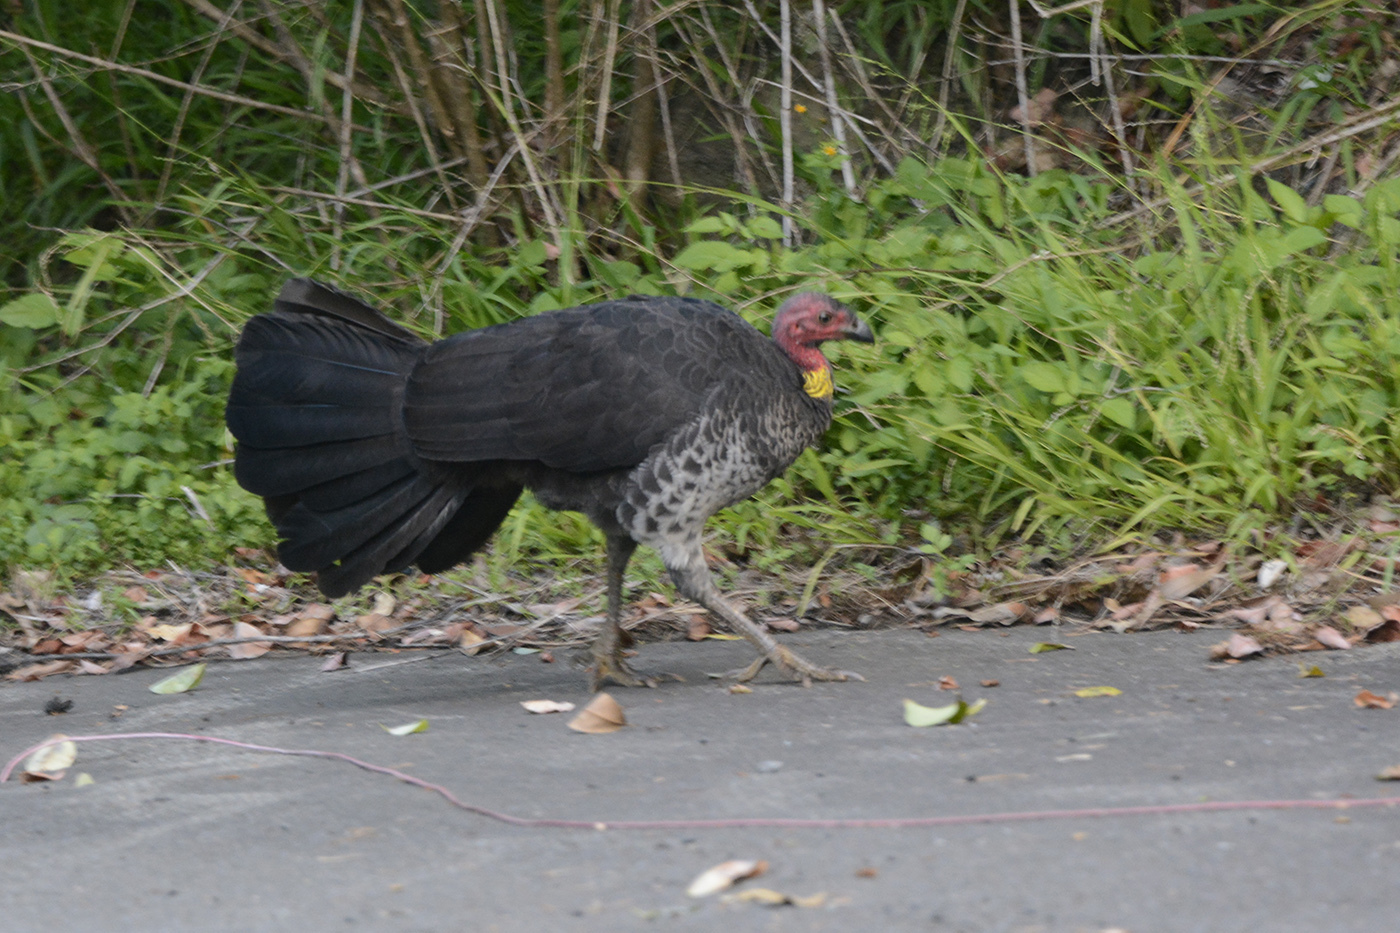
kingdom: Animalia
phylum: Chordata
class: Aves
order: Galliformes
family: Megapodiidae
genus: Alectura
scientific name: Alectura lathami
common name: Australian brushturkey
